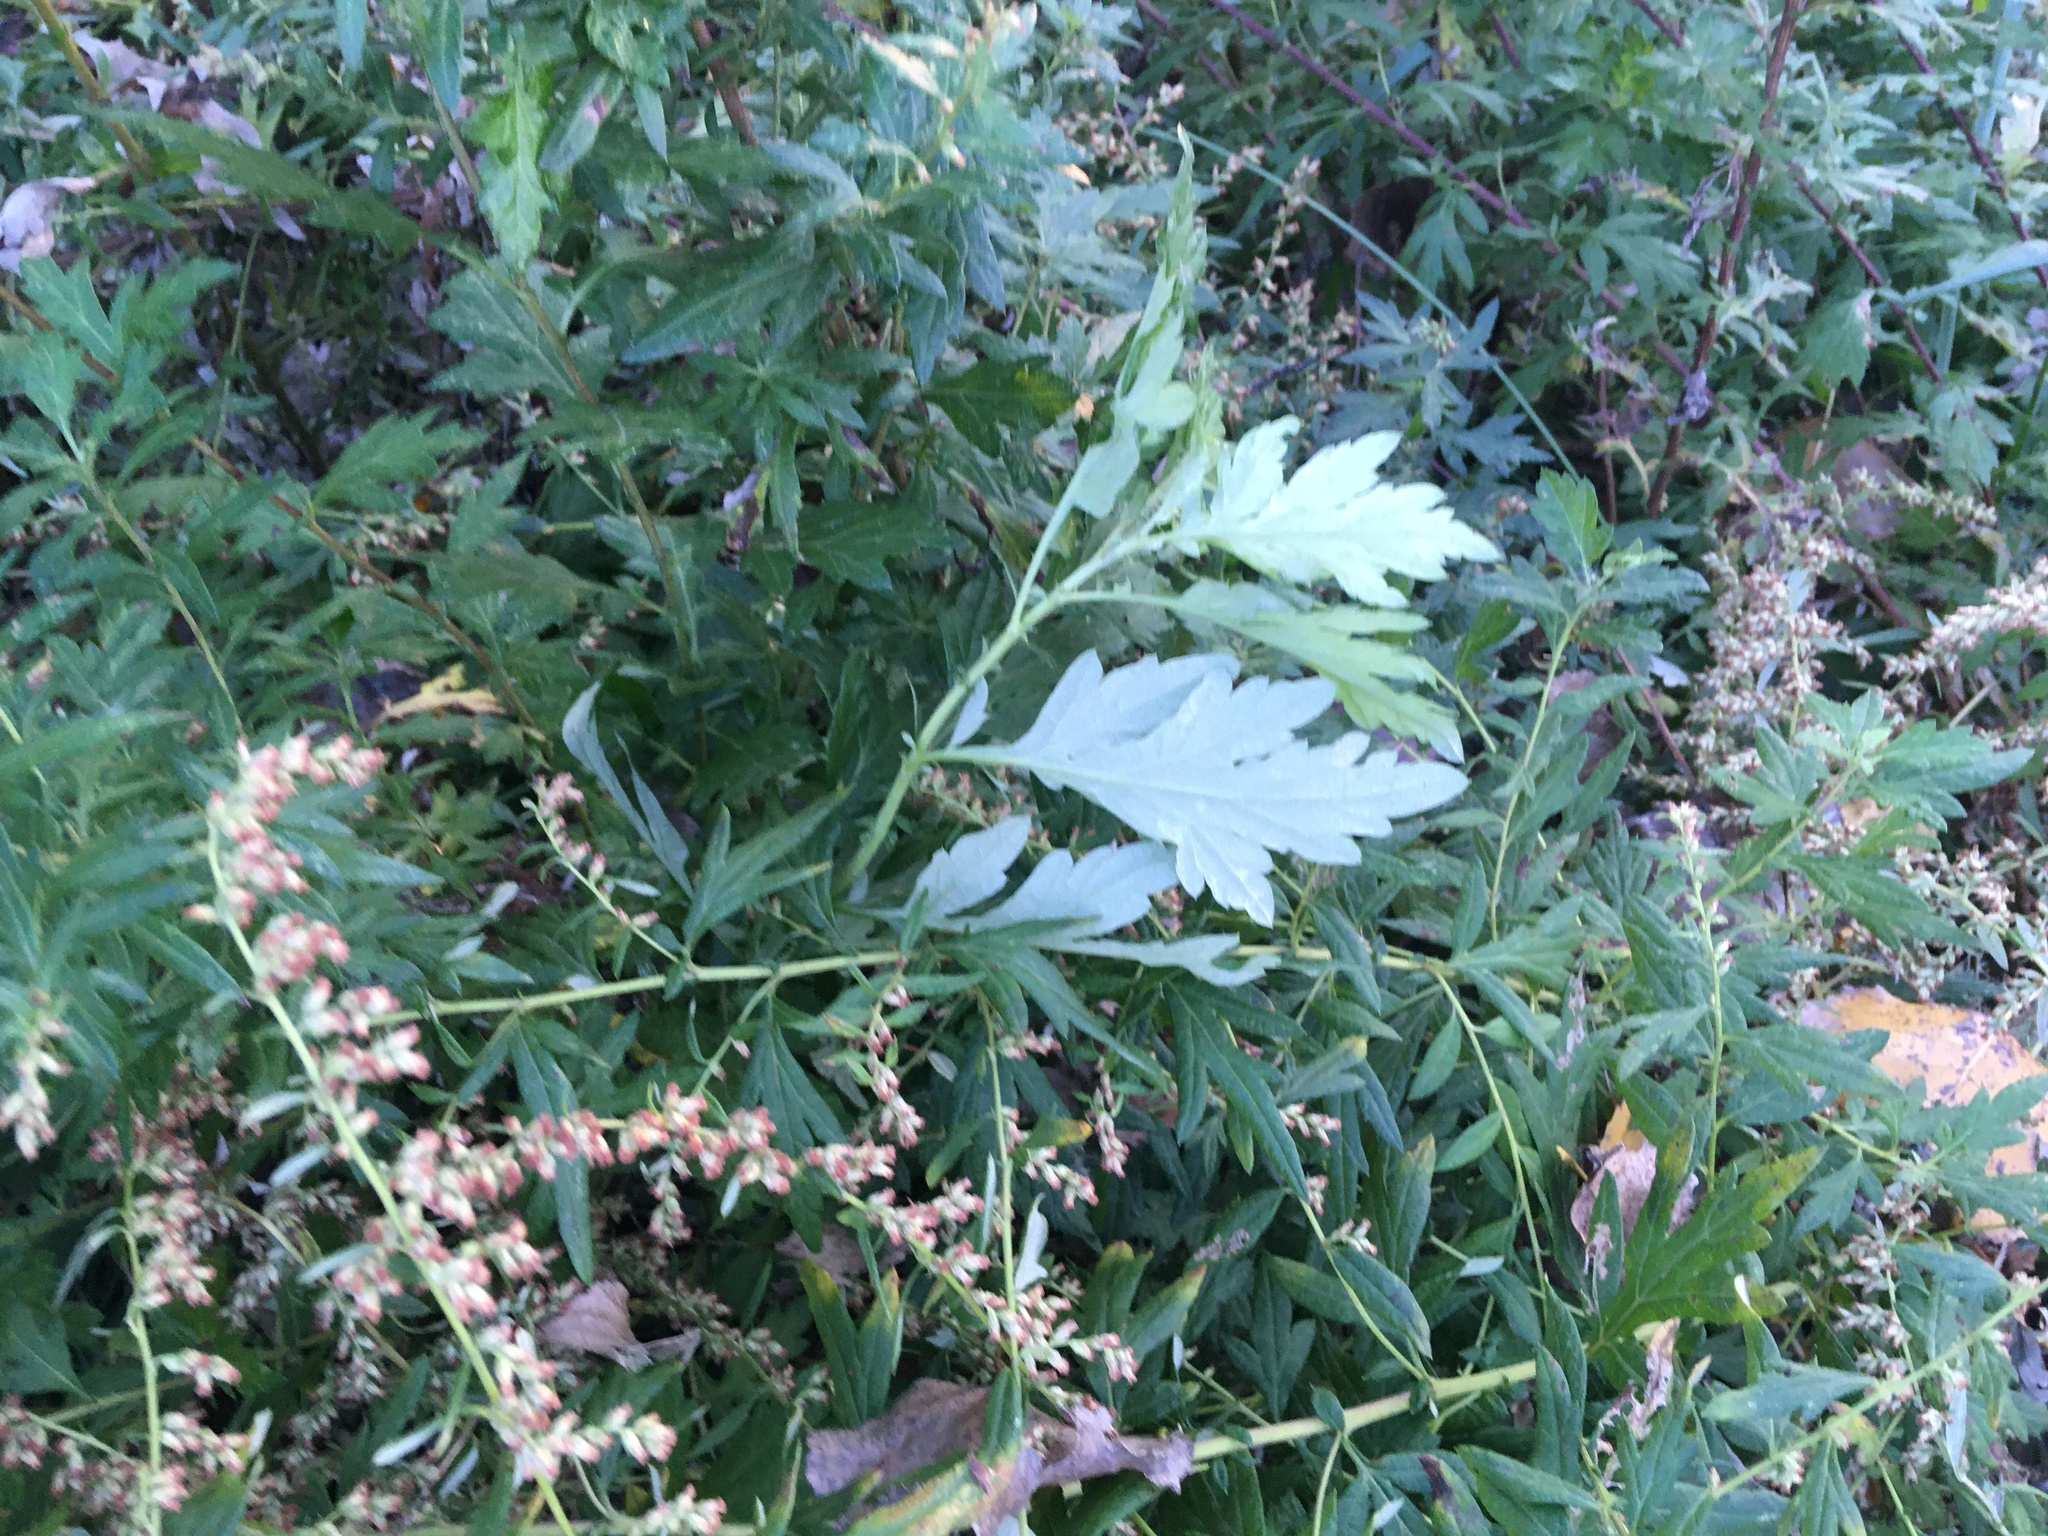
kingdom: Plantae
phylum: Tracheophyta
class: Magnoliopsida
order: Asterales
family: Asteraceae
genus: Artemisia
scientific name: Artemisia vulgaris
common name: Mugwort
